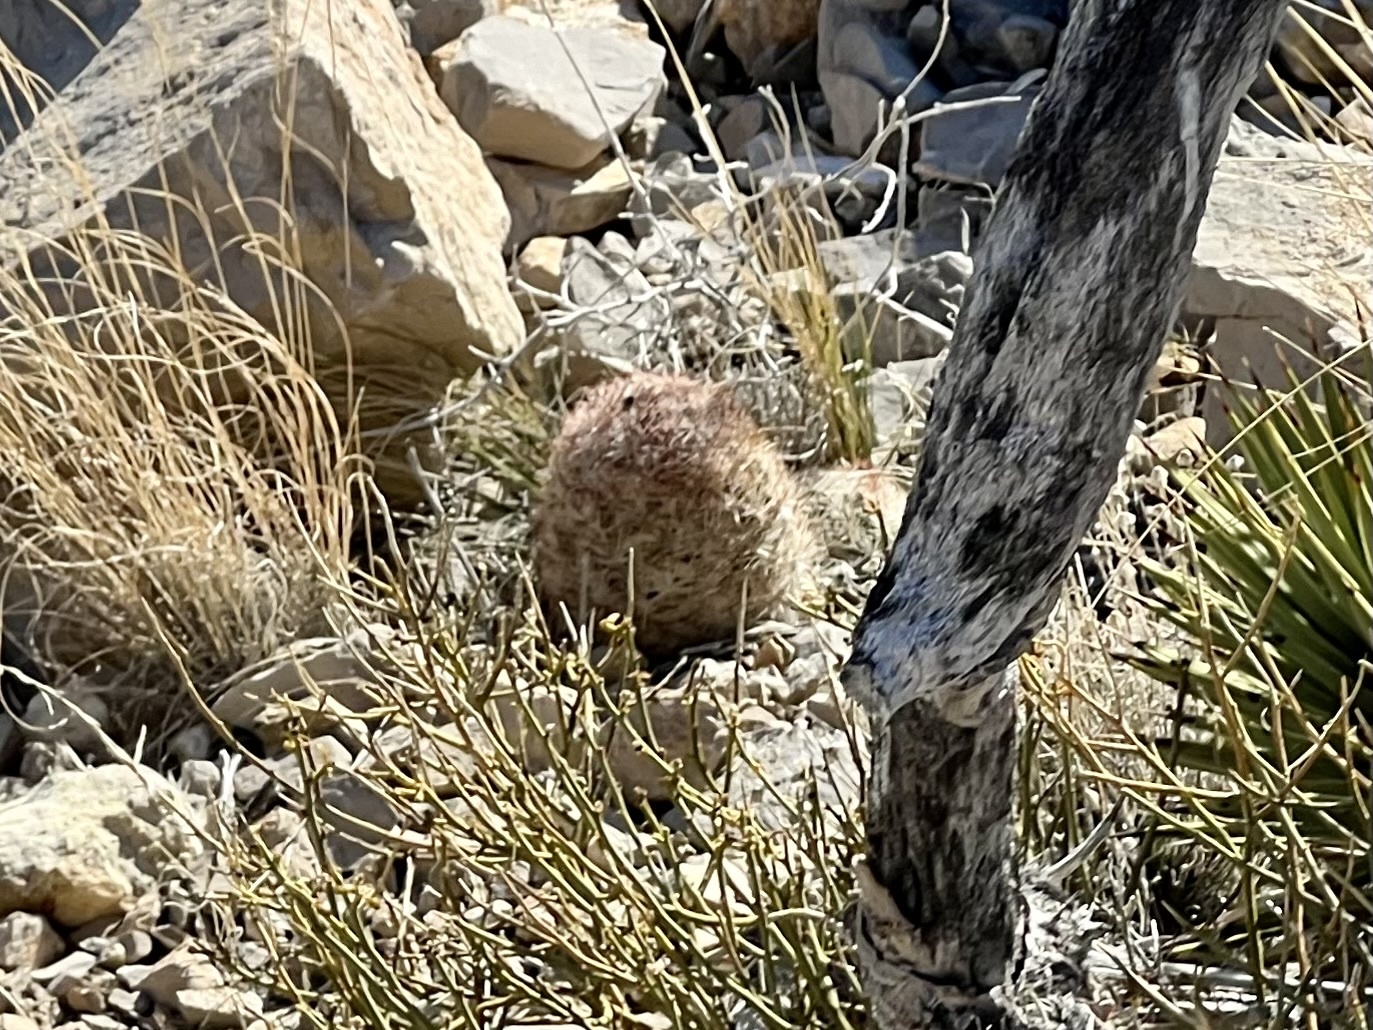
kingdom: Plantae
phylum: Tracheophyta
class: Magnoliopsida
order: Caryophyllales
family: Cactaceae
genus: Pelecyphora
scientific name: Pelecyphora dasyacantha
